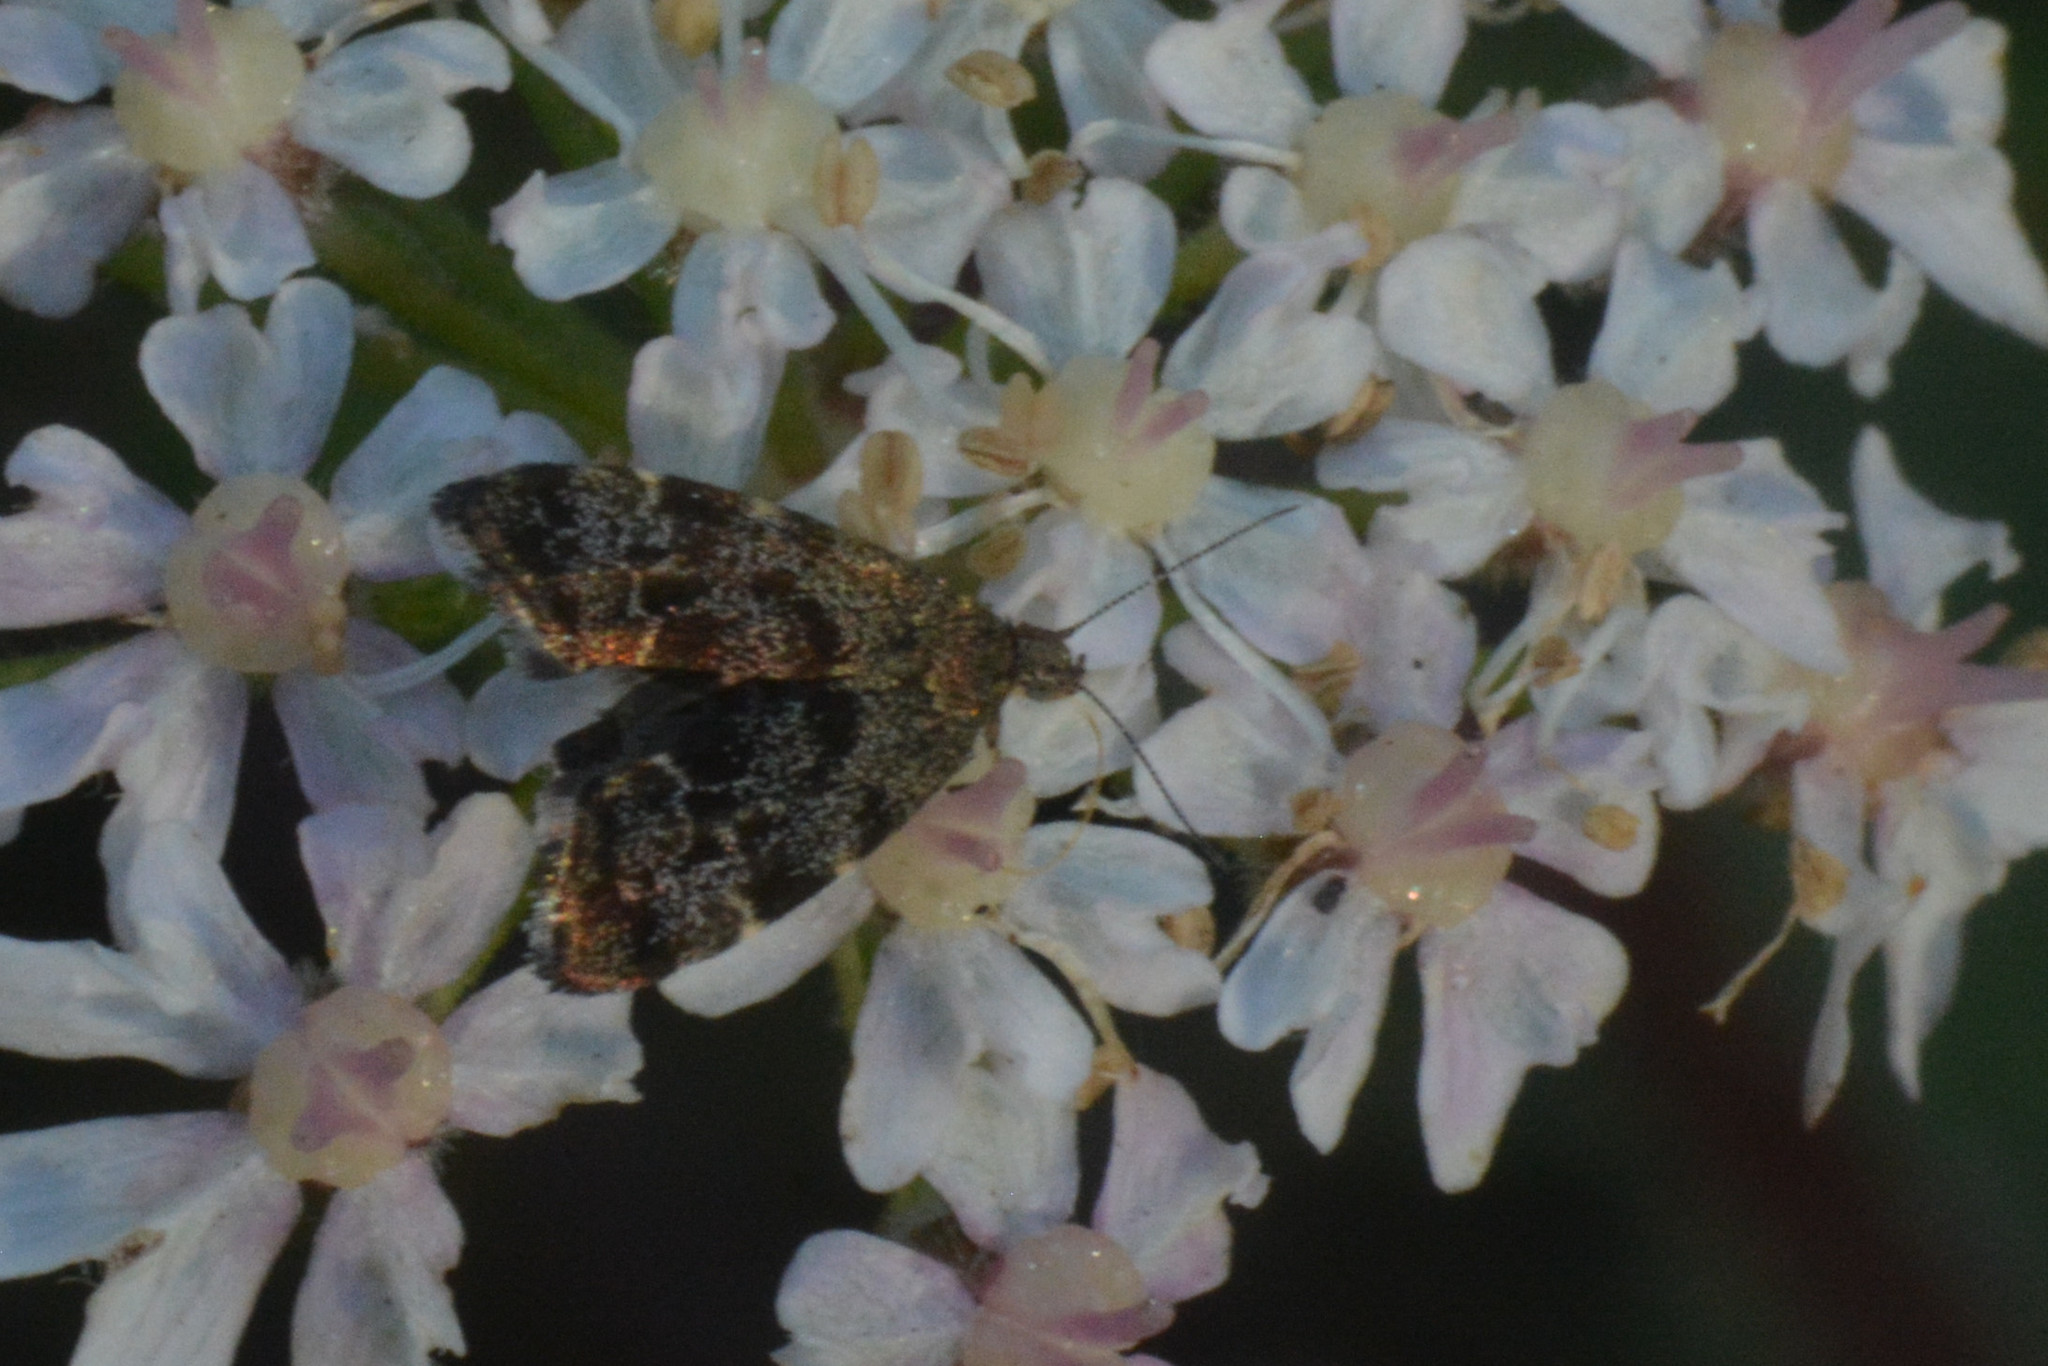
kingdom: Animalia
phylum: Arthropoda
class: Insecta
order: Lepidoptera
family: Choreutidae
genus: Anthophila
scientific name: Anthophila fabriciana
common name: Nettle-tap
